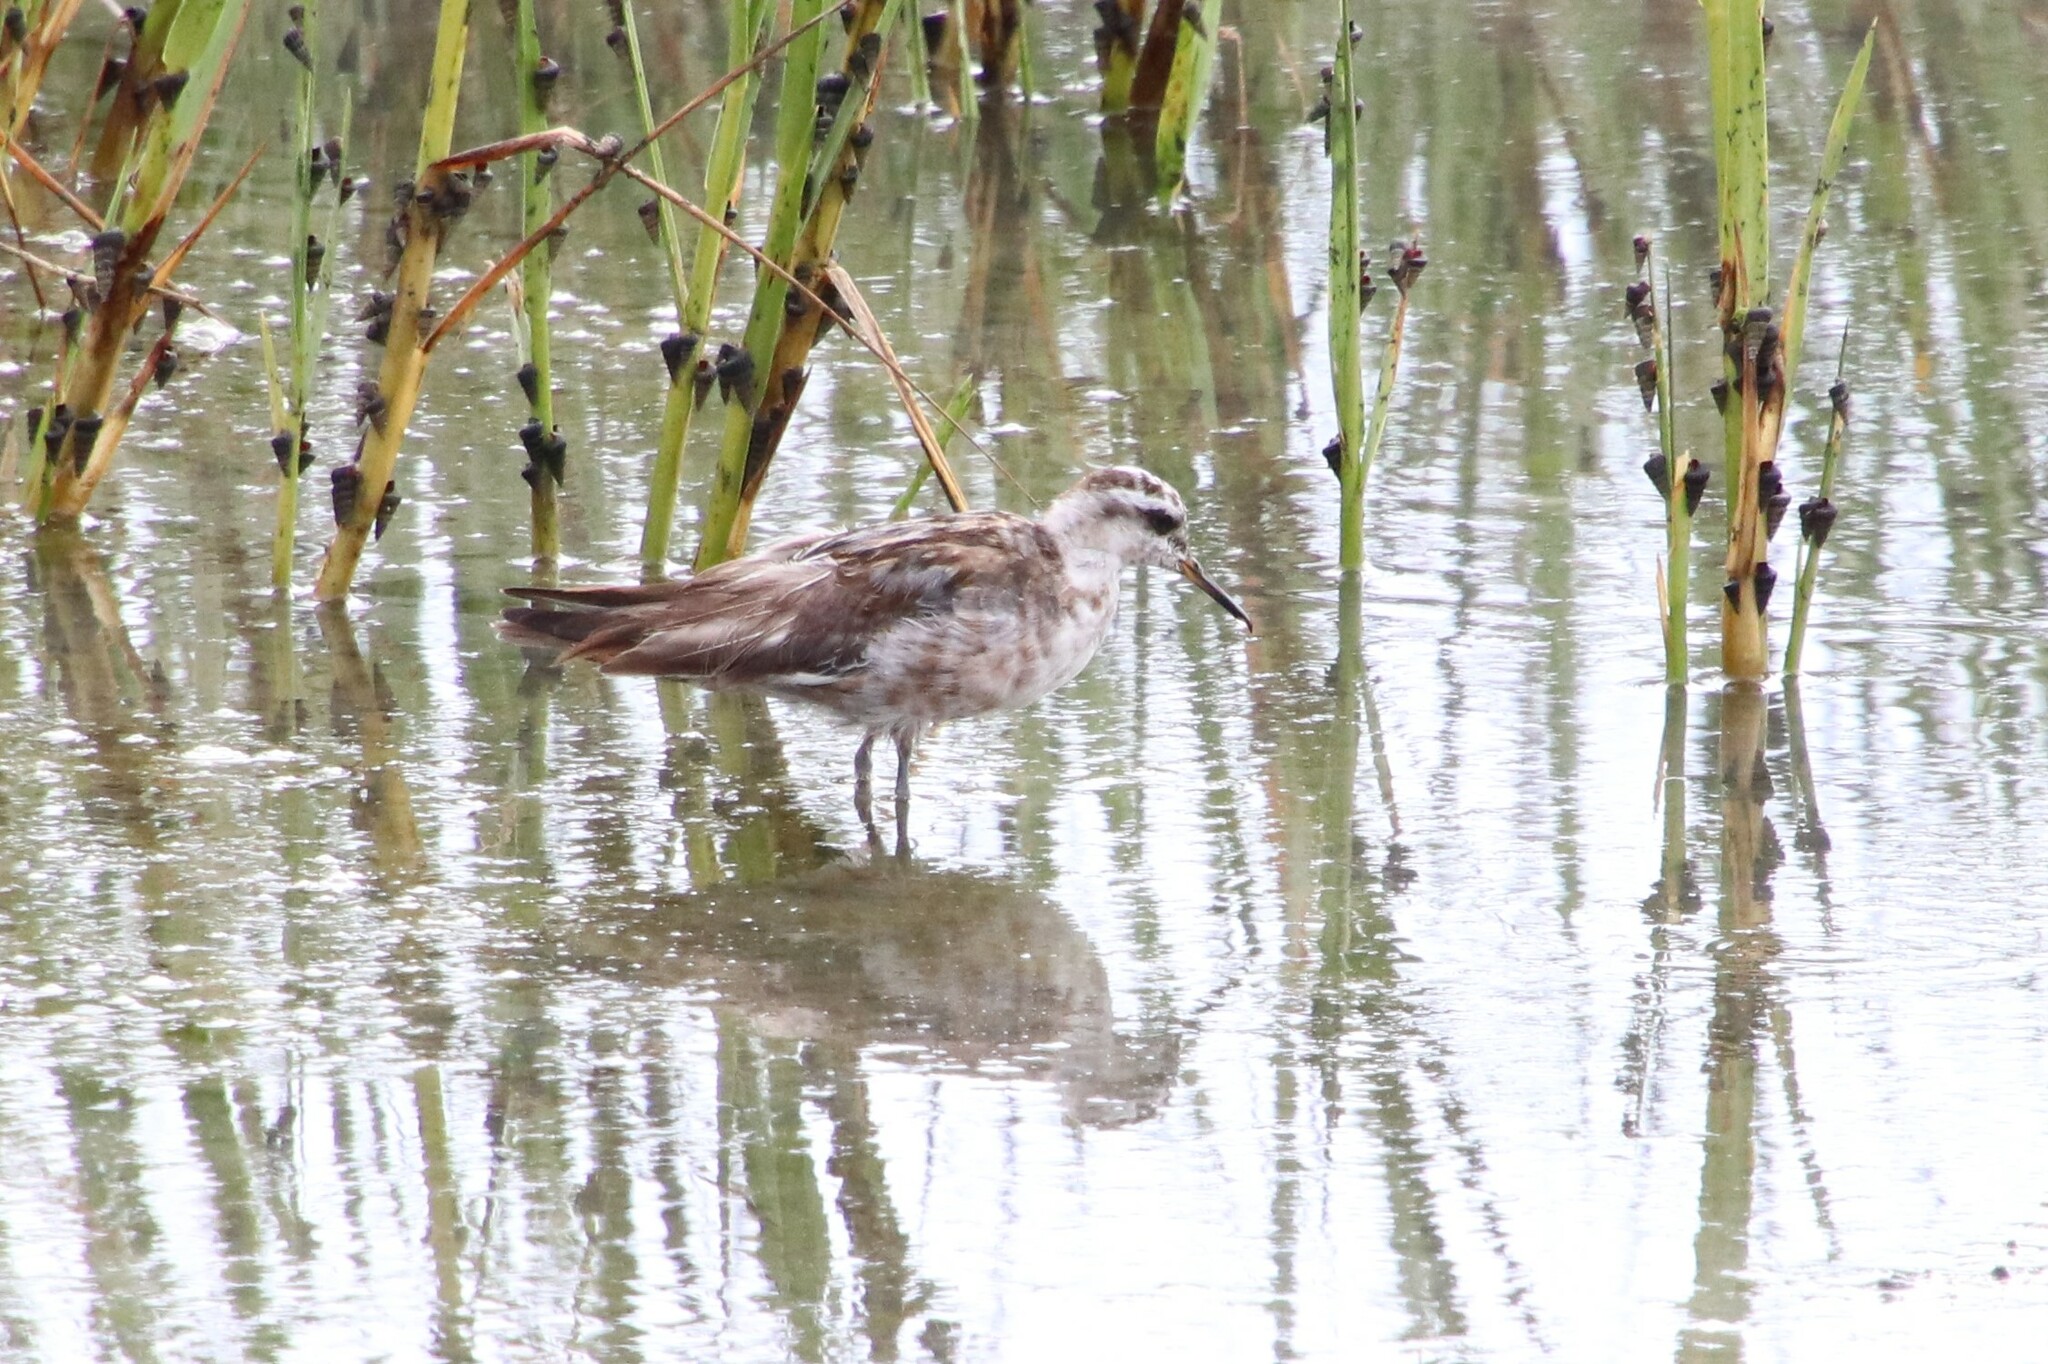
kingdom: Animalia
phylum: Chordata
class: Aves
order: Charadriiformes
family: Scolopacidae
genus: Phalaropus
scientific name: Phalaropus lobatus
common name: Red-necked phalarope
